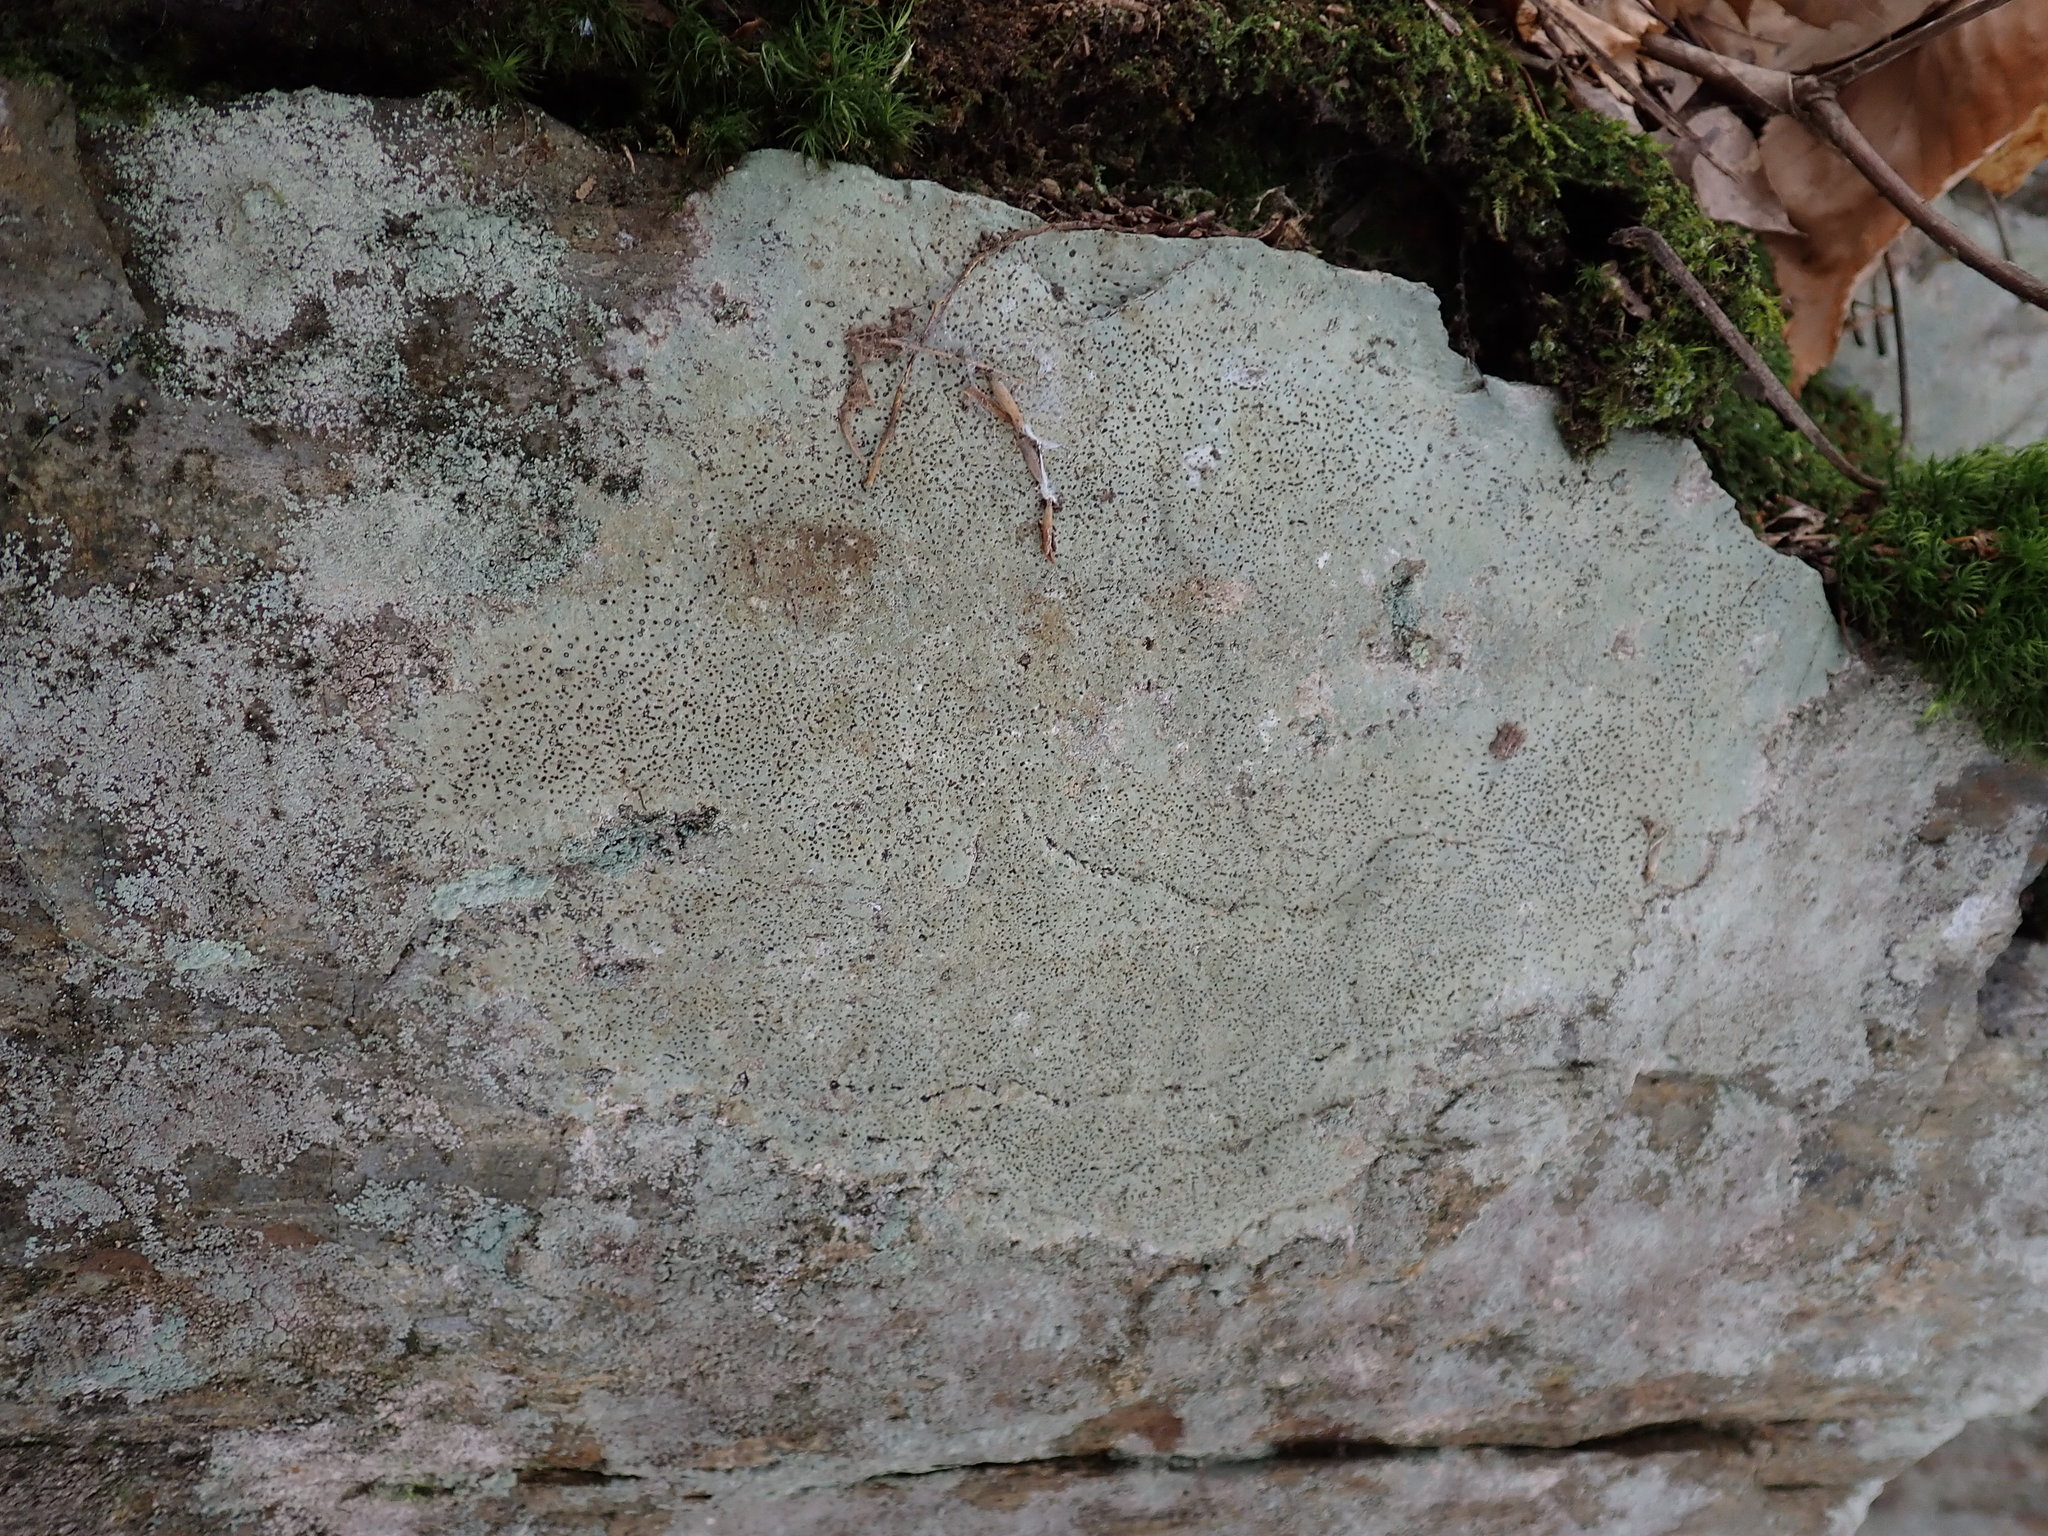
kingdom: Fungi
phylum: Ascomycota
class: Lecanoromycetes
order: Lecideales
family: Lecideaceae
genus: Porpidia
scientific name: Porpidia albocaerulescens
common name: Smokey-eyed boulder lichen
